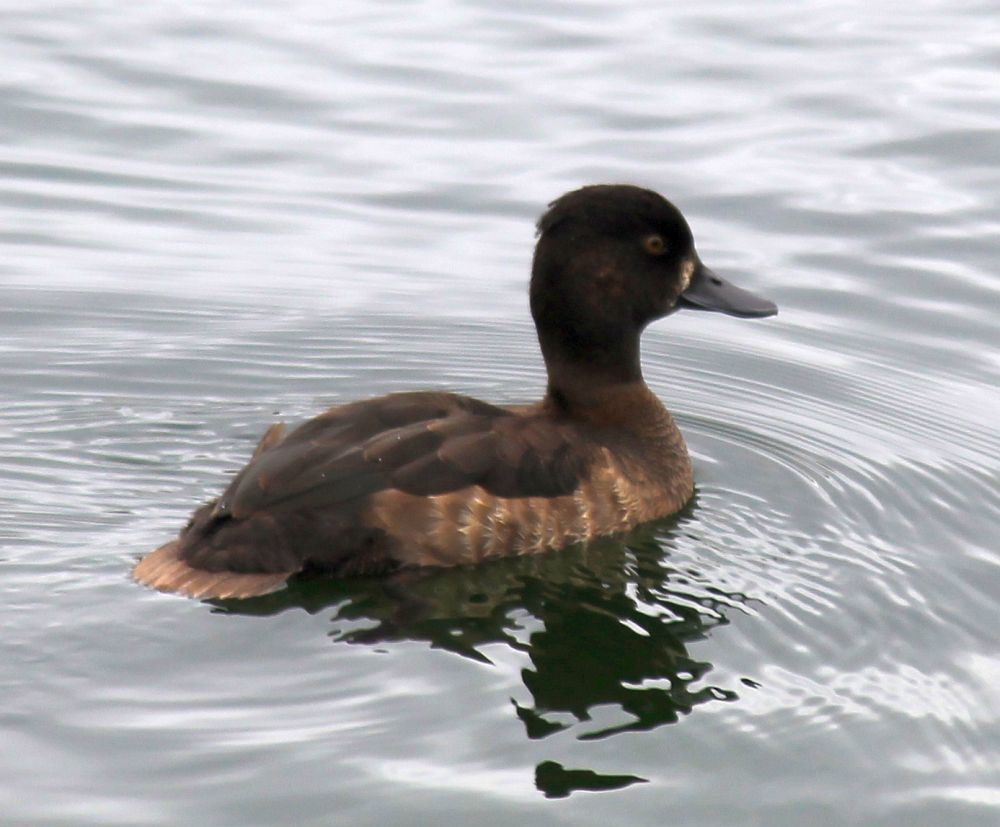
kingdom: Animalia
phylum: Chordata
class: Aves
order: Anseriformes
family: Anatidae
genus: Aythya
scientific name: Aythya fuligula
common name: Tufted duck
